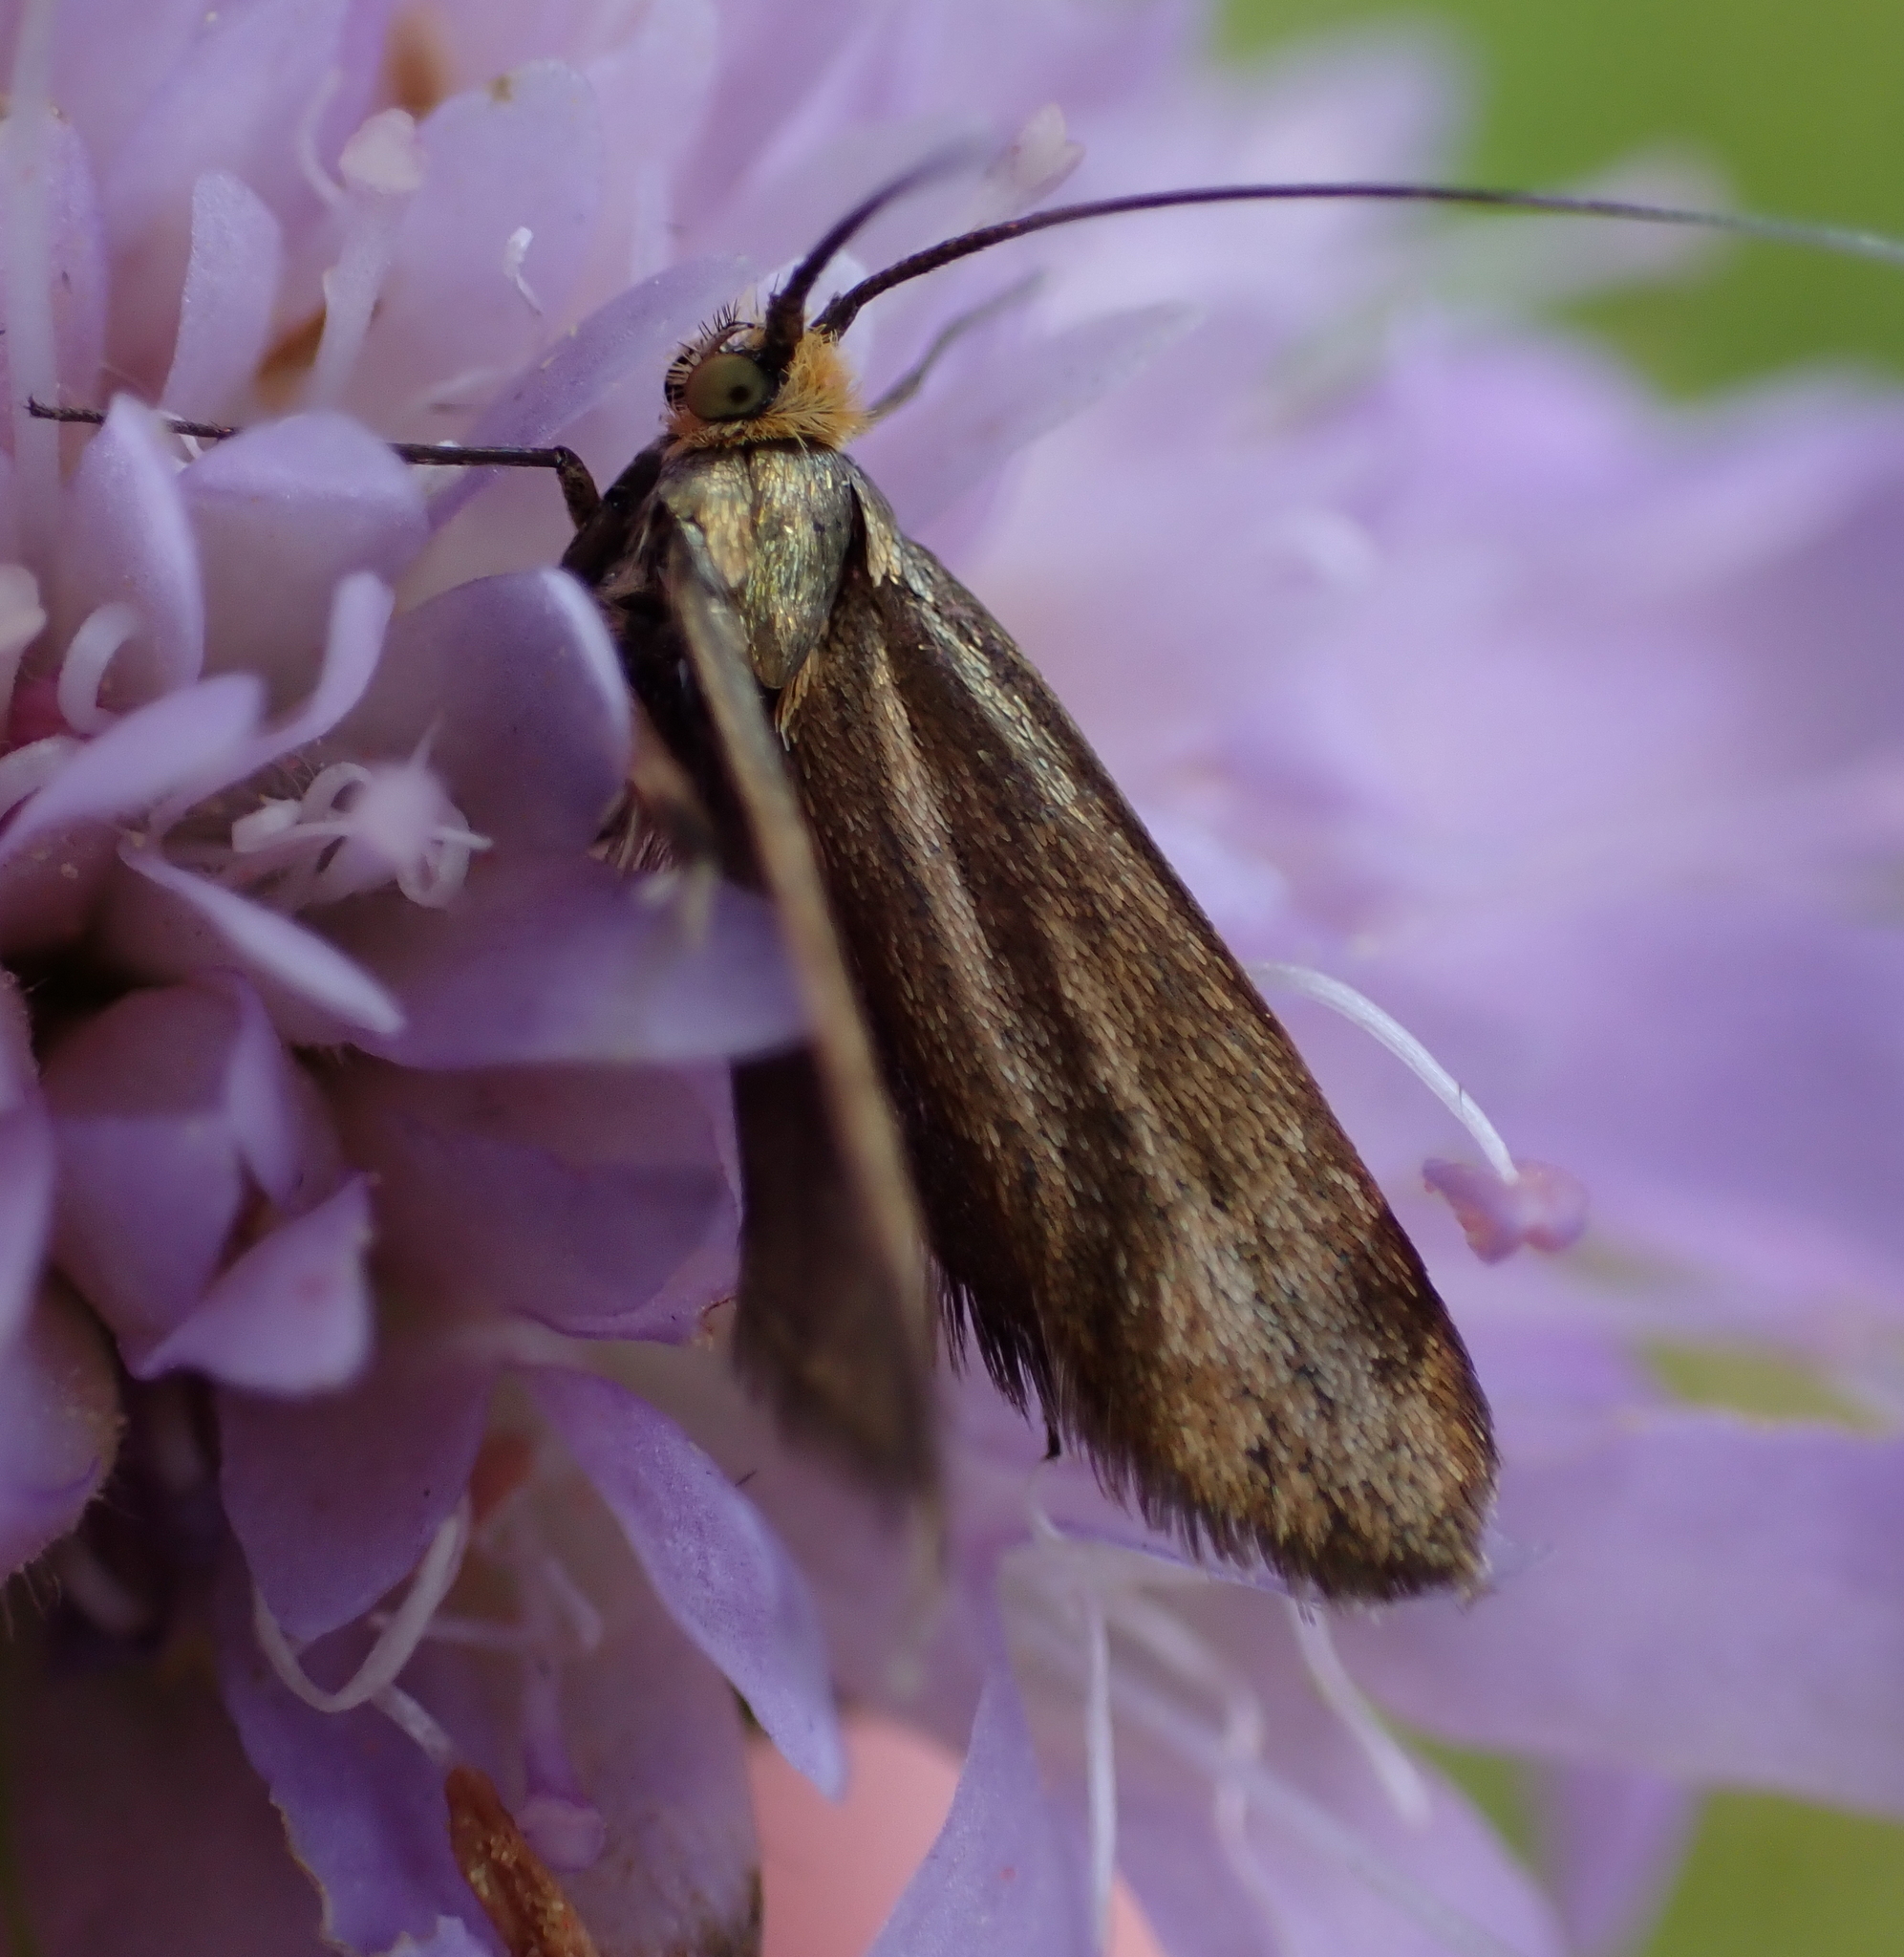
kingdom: Animalia
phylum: Arthropoda
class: Insecta
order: Lepidoptera
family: Adelidae
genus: Nemophora
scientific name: Nemophora metallica
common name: Brassy long-horn
